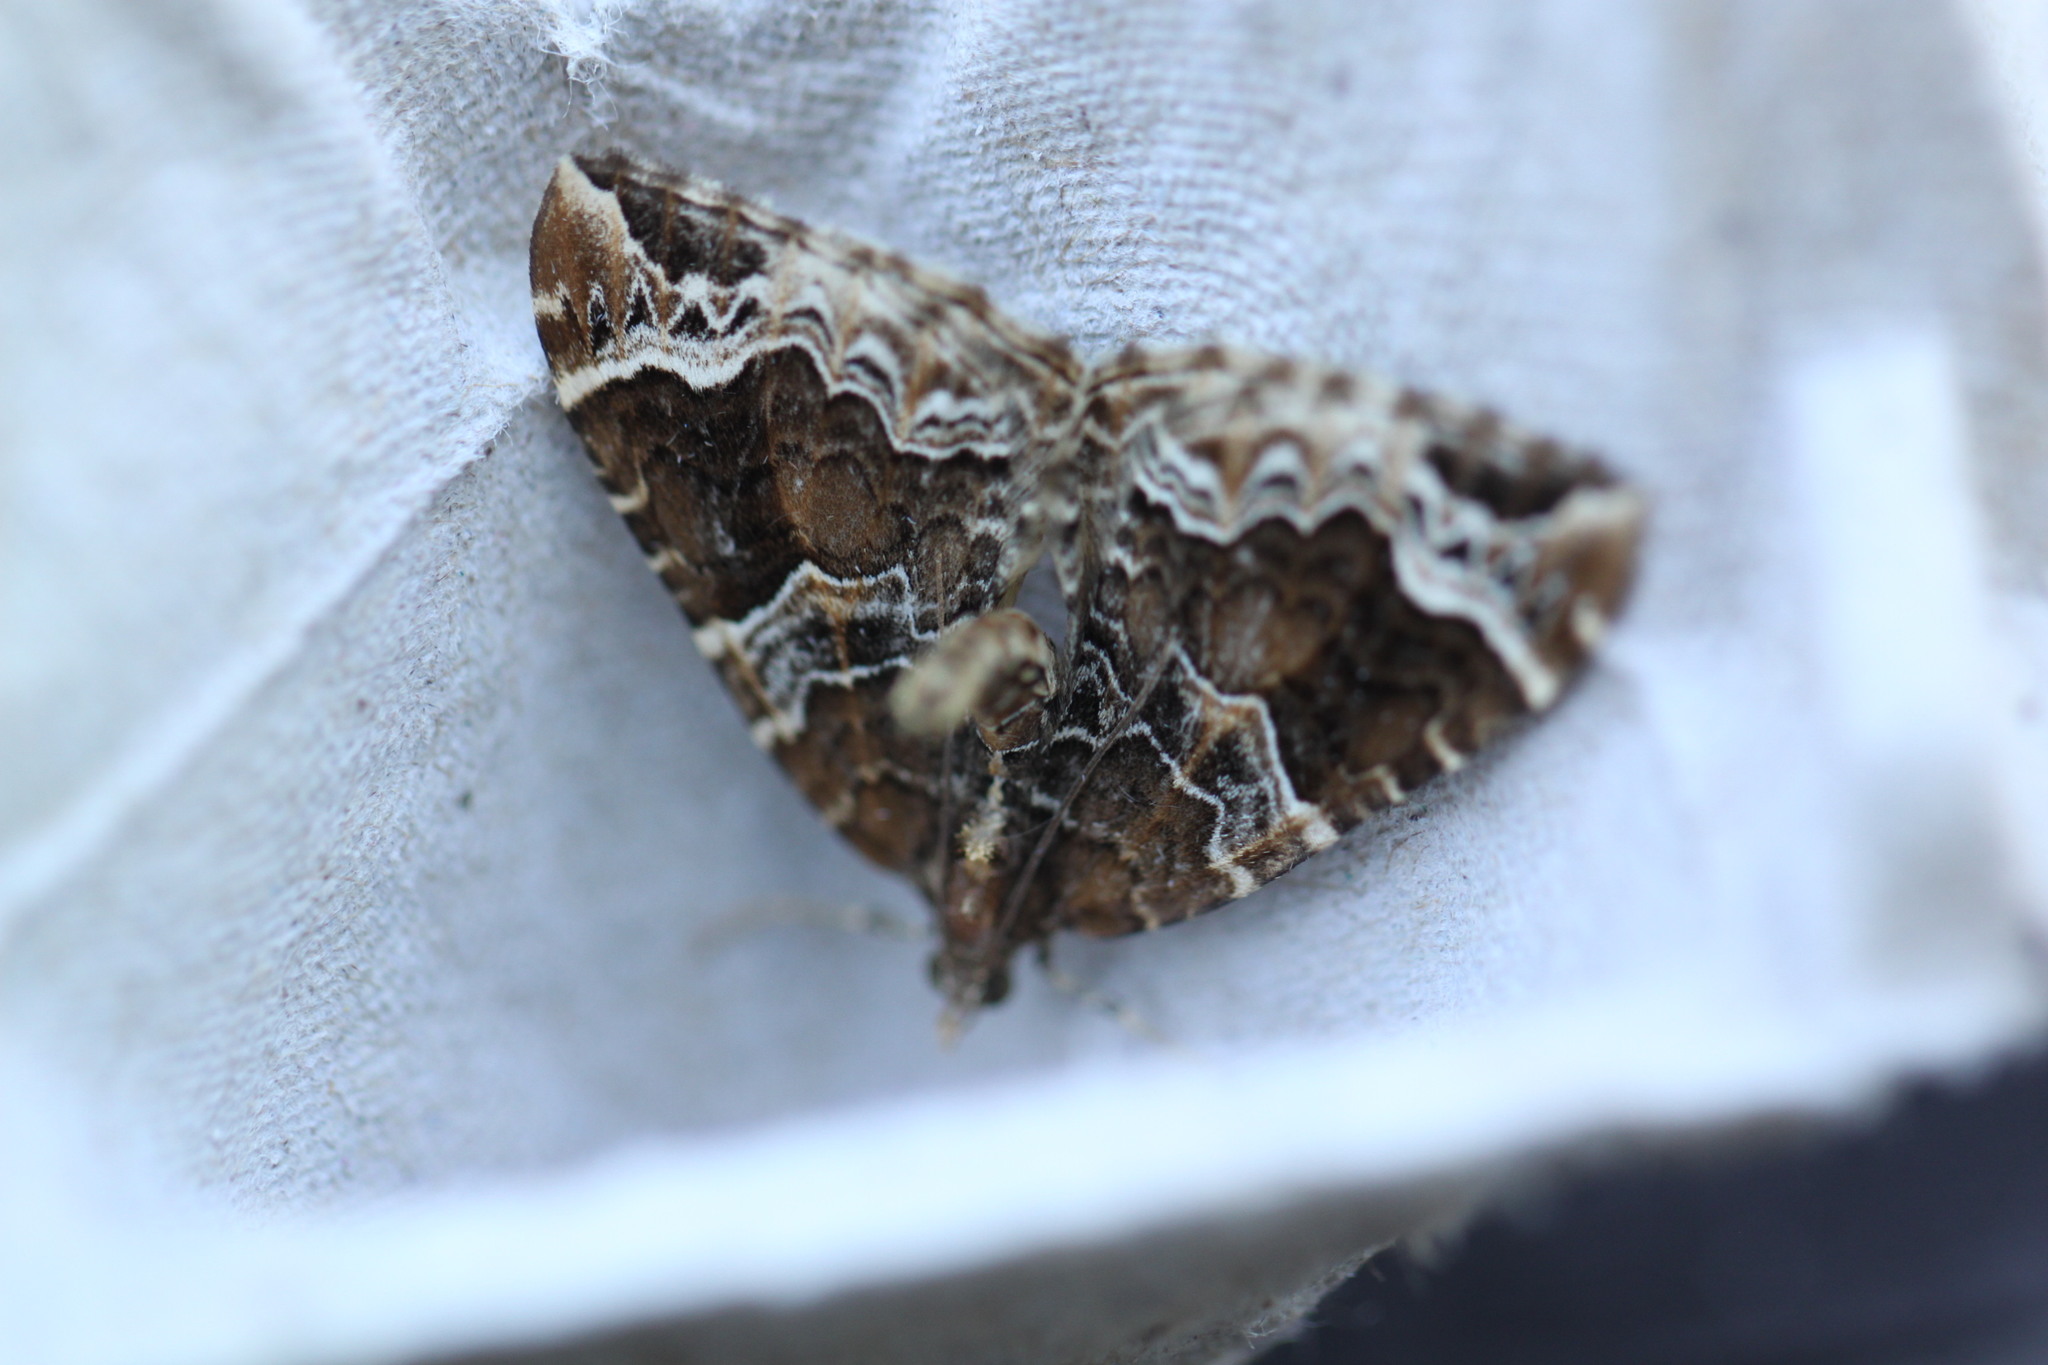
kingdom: Animalia
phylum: Arthropoda
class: Insecta
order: Lepidoptera
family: Geometridae
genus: Eulithis
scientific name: Eulithis prunata
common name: Phoenix
